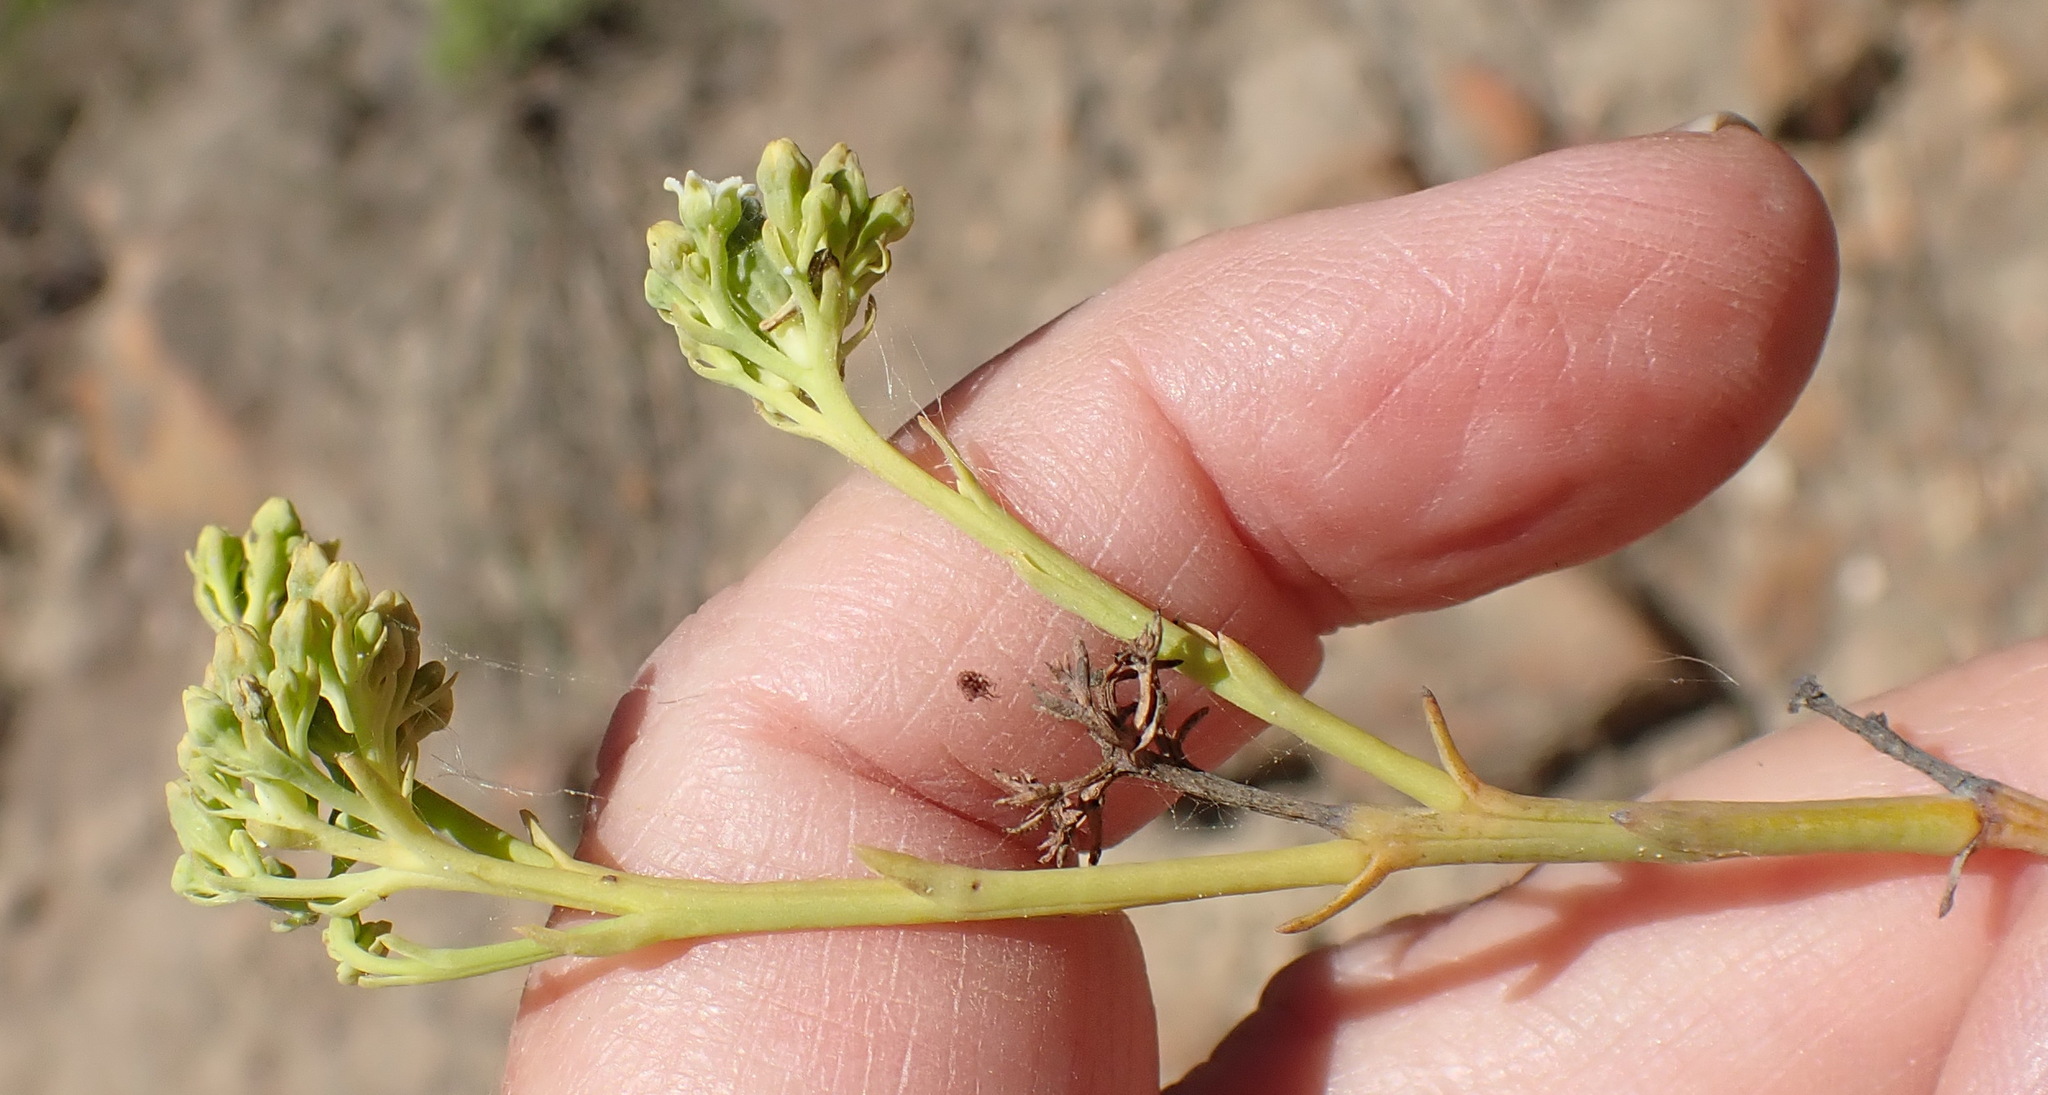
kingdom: Plantae
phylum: Tracheophyta
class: Magnoliopsida
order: Santalales
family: Thesiaceae
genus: Thesium
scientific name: Thesium strictum
